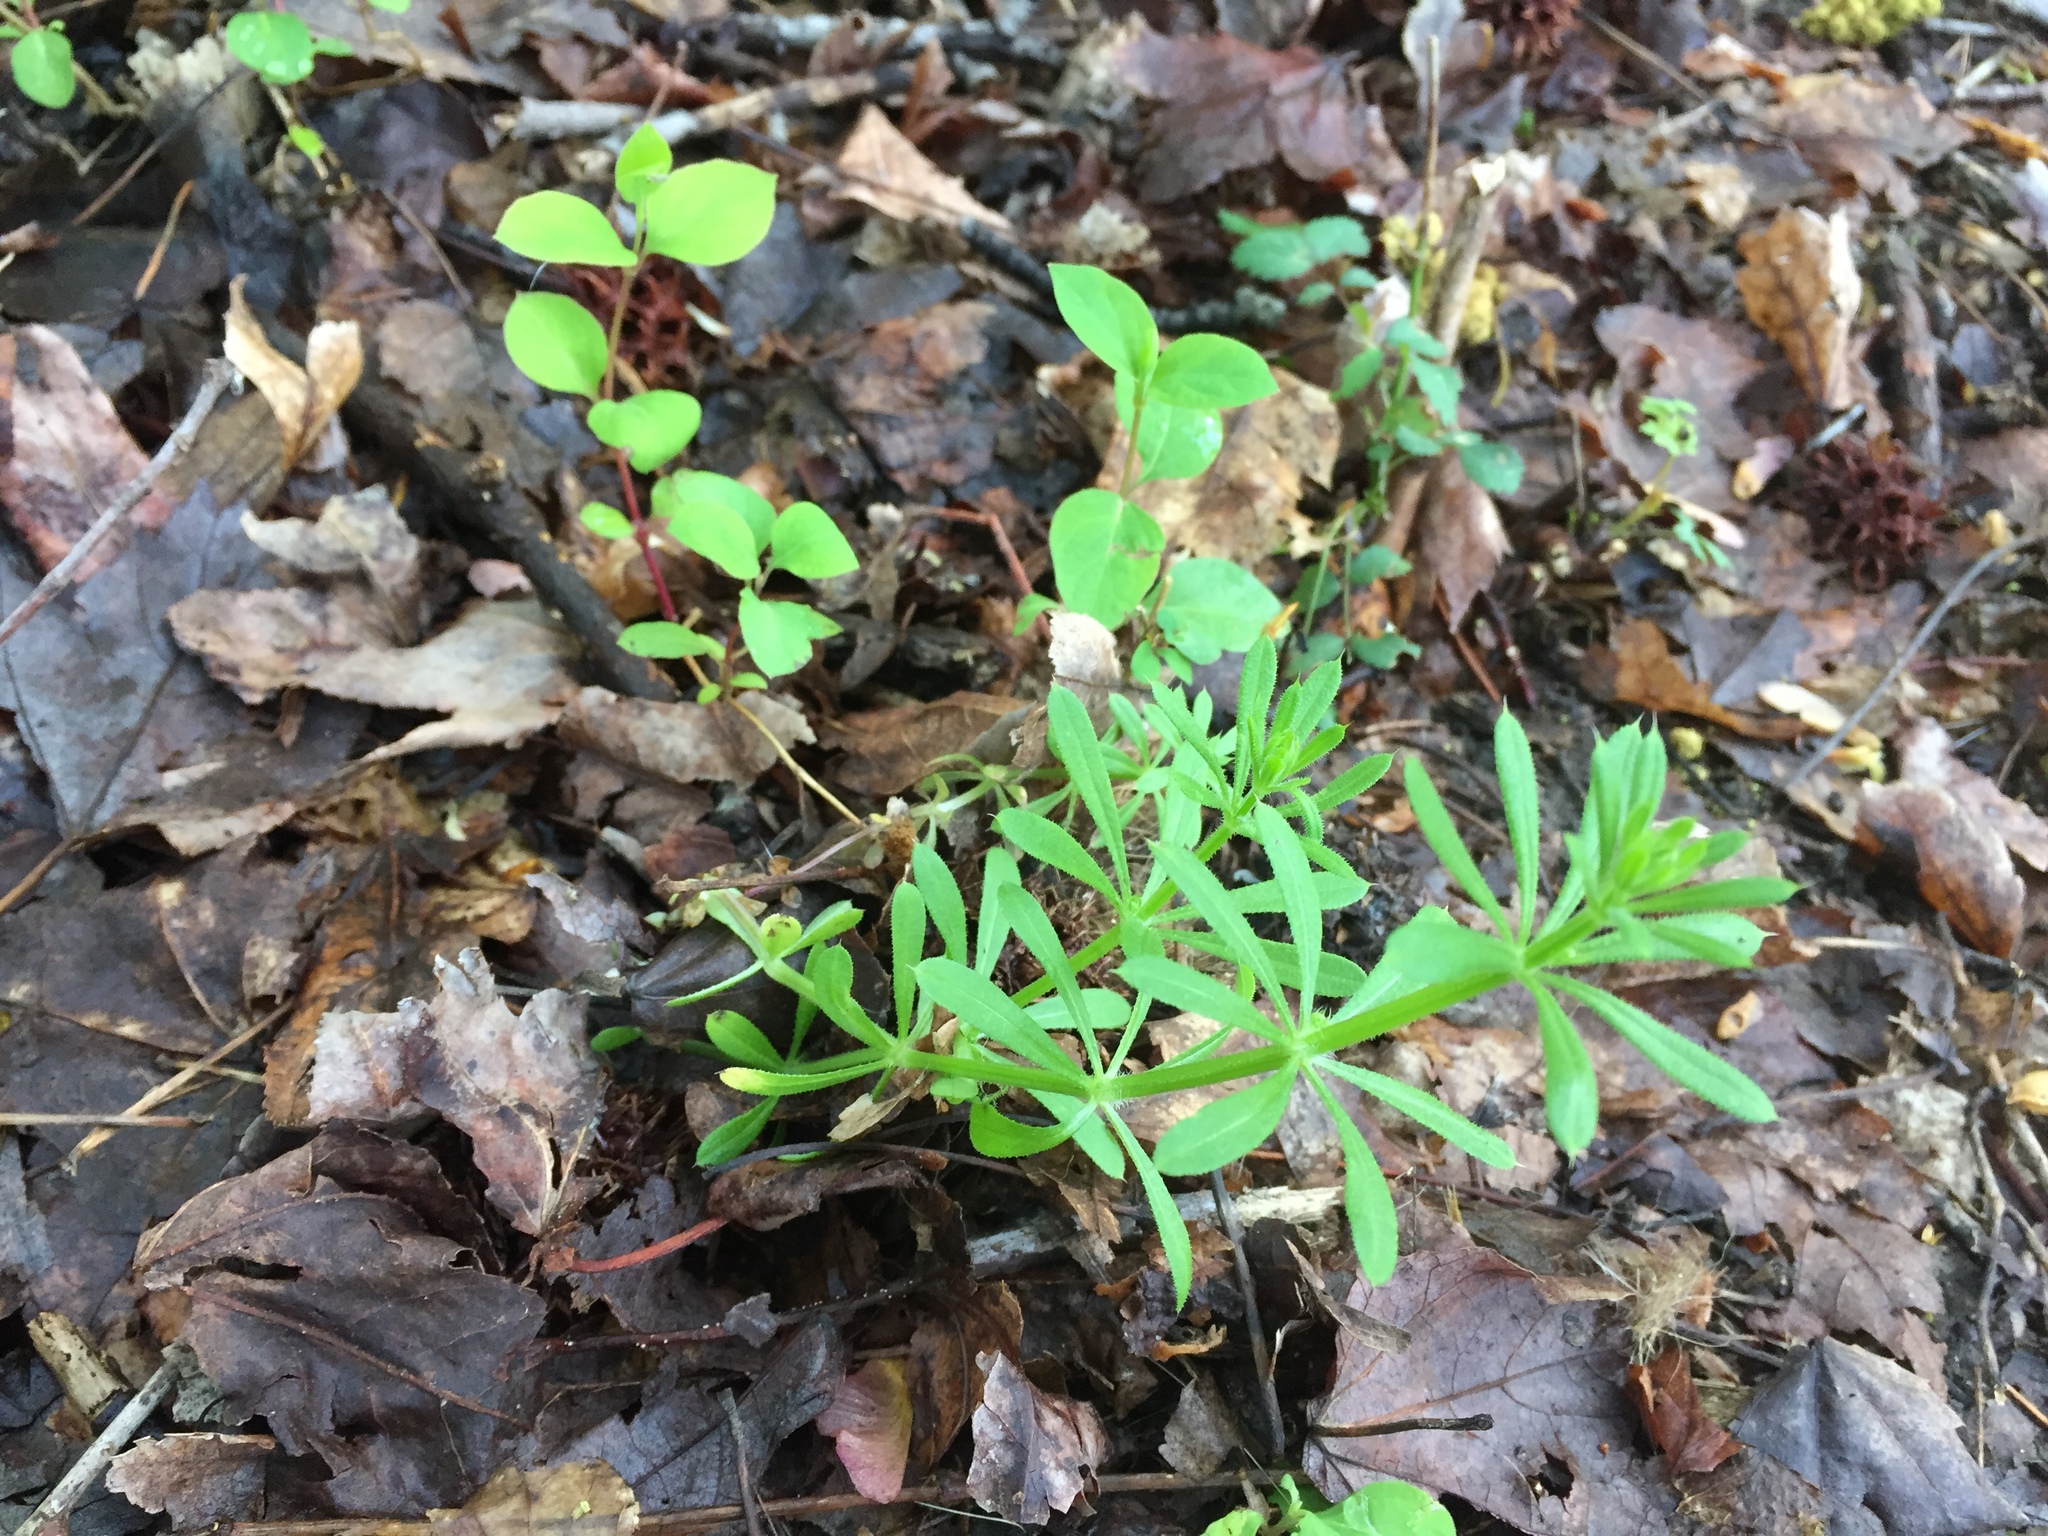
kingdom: Plantae
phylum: Tracheophyta
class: Magnoliopsida
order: Gentianales
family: Rubiaceae
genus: Galium
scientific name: Galium aparine
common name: Cleavers
